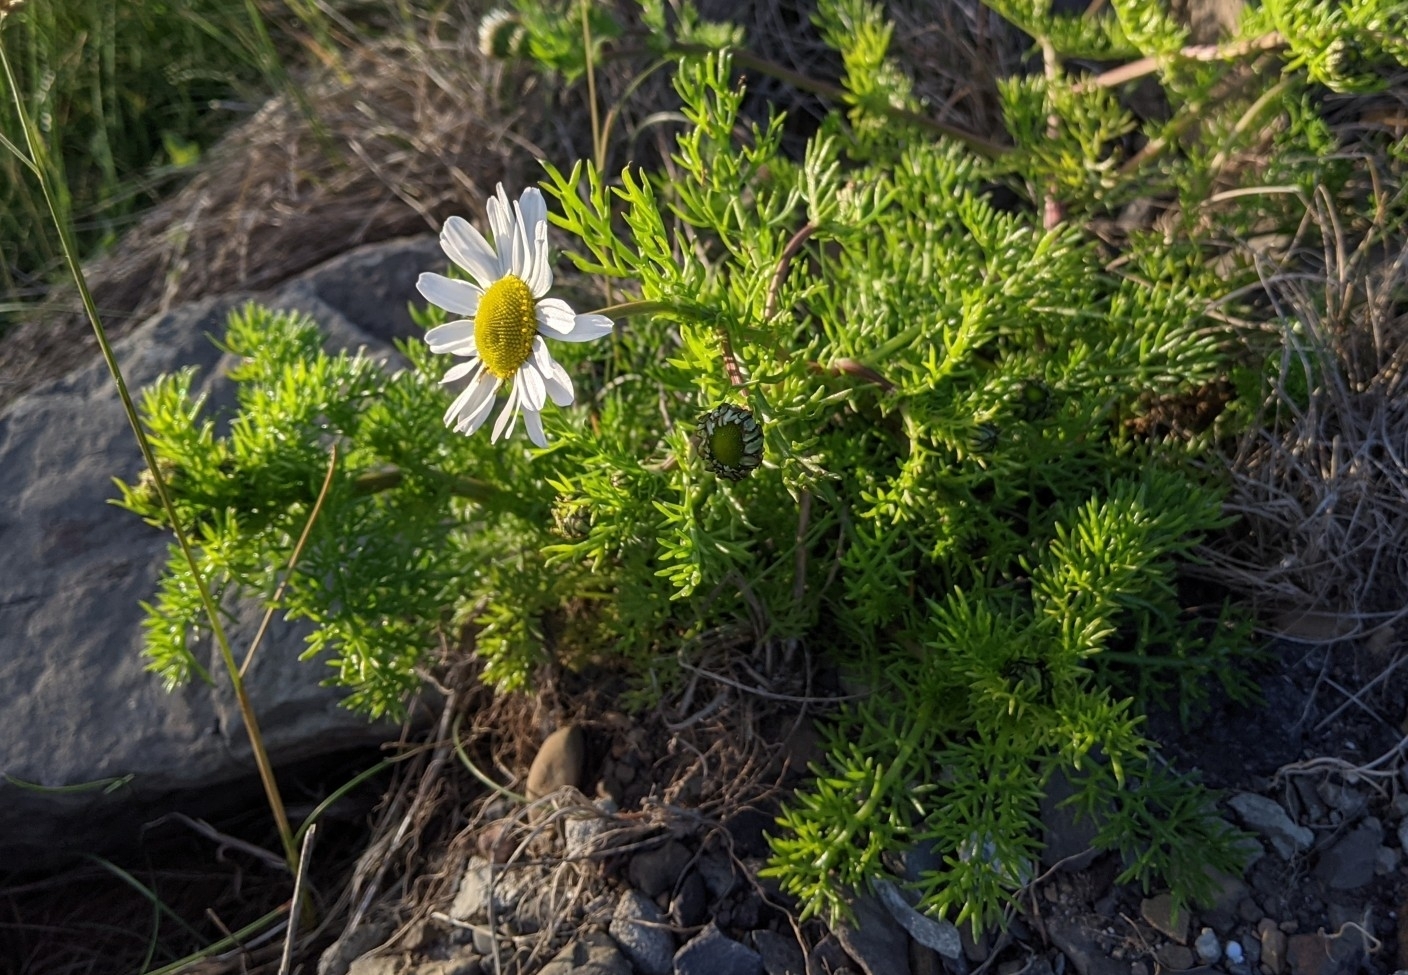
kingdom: Plantae
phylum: Tracheophyta
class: Magnoliopsida
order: Asterales
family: Asteraceae
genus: Tripleurospermum
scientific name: Tripleurospermum maritimum
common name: Sea mayweed
